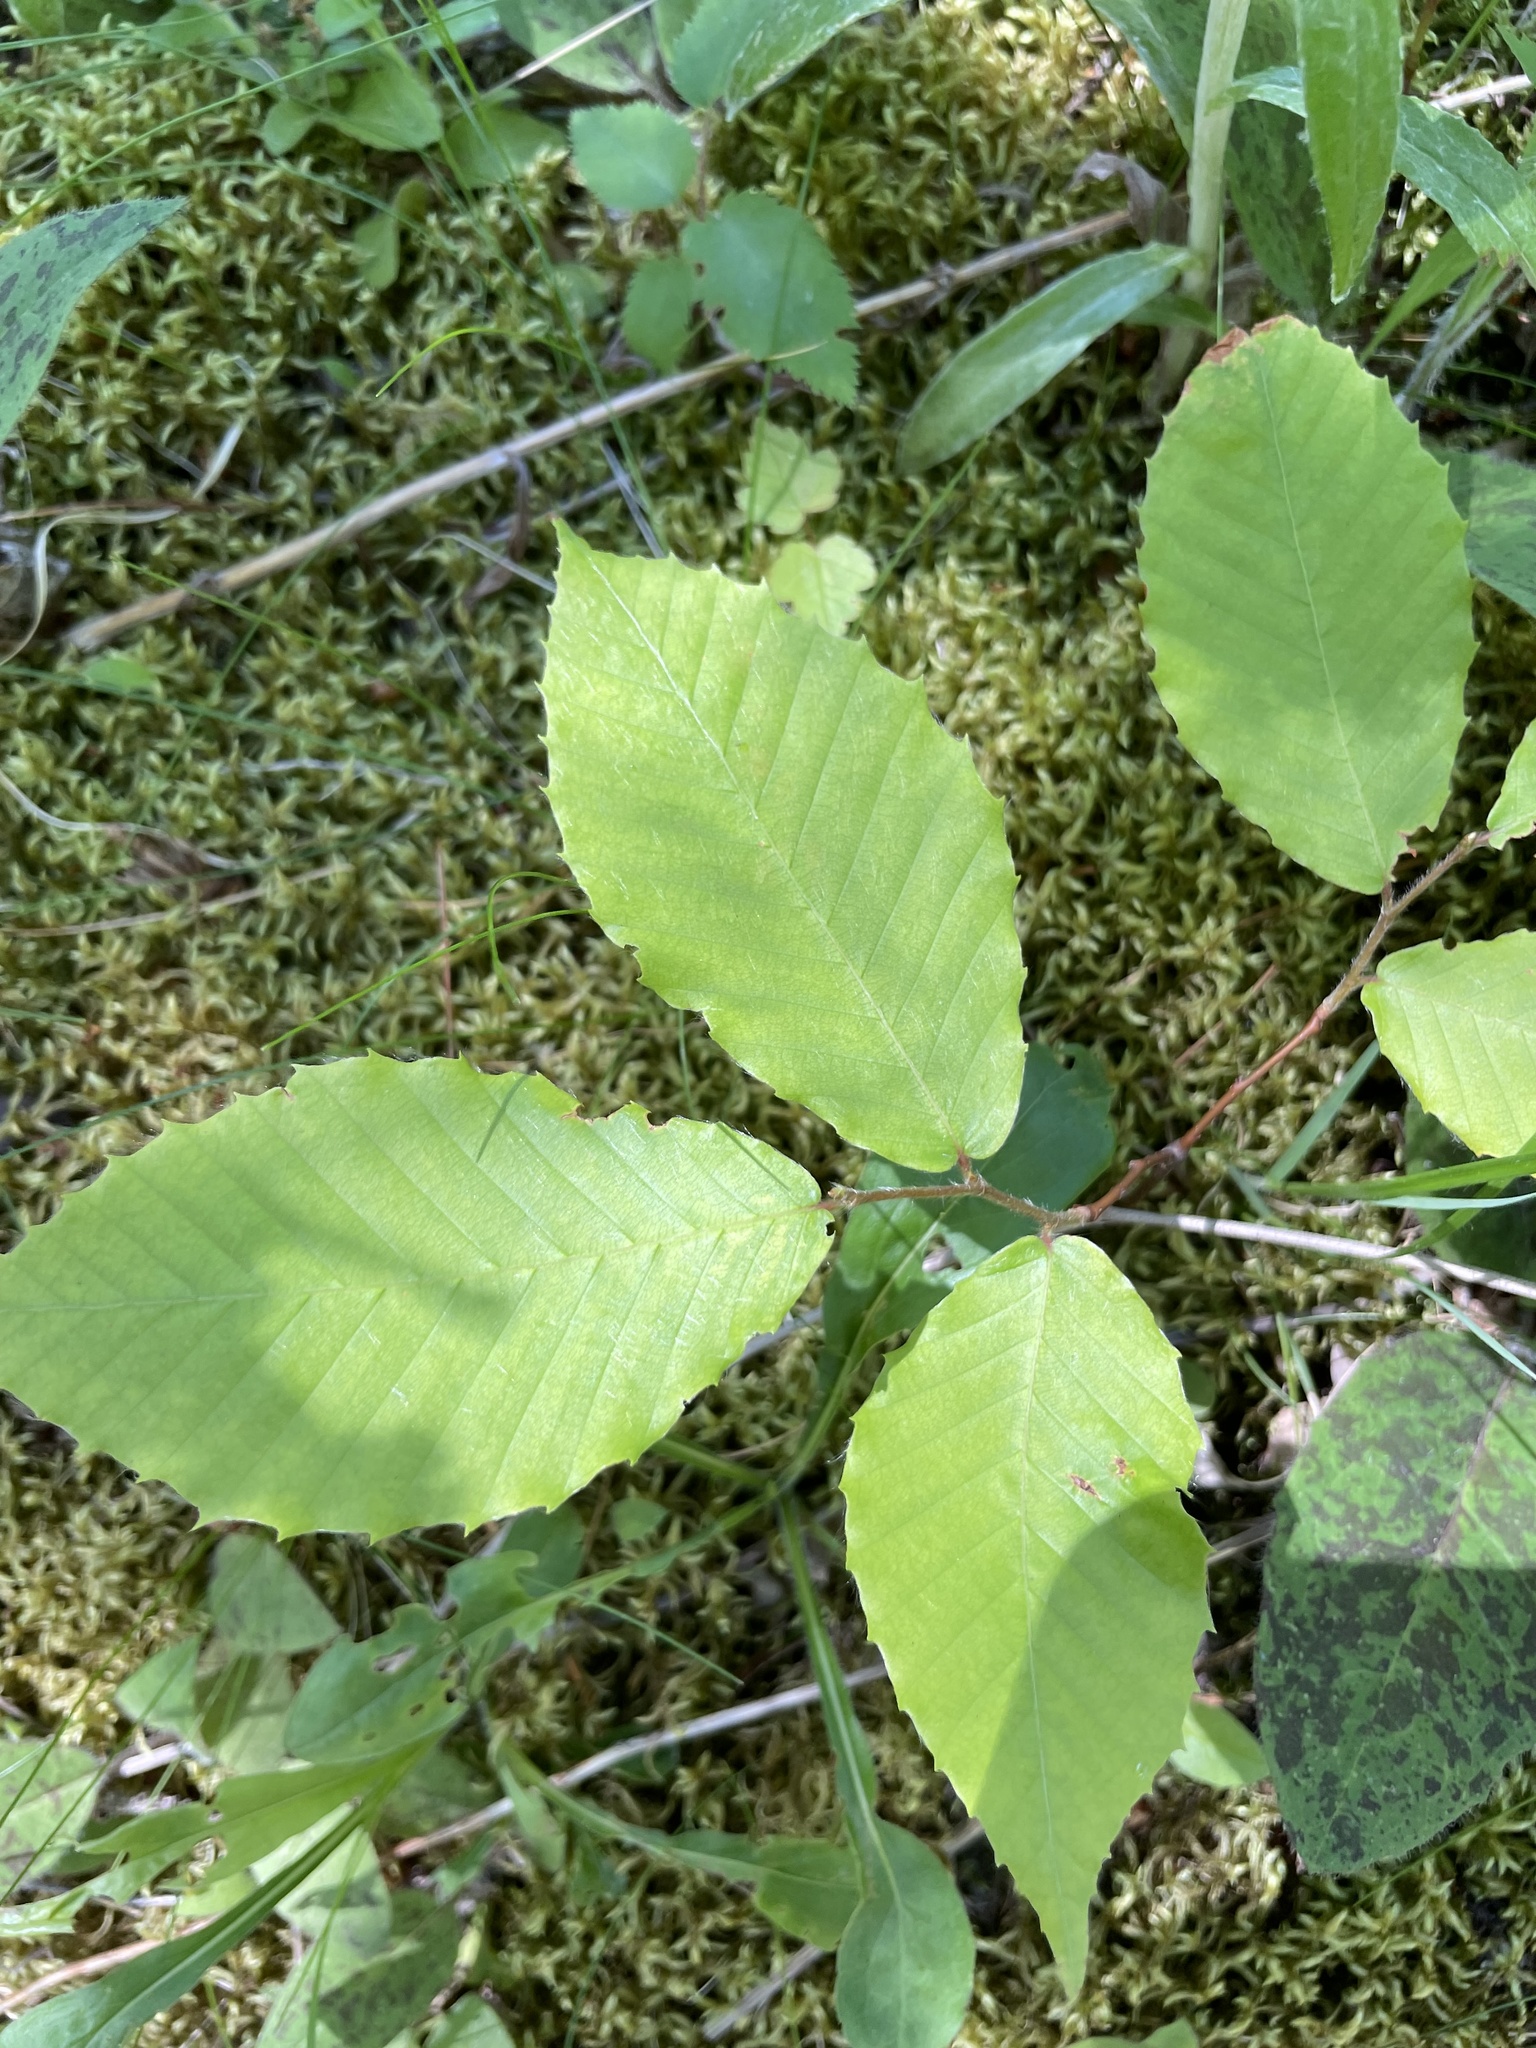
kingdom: Plantae
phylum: Tracheophyta
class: Magnoliopsida
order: Fagales
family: Fagaceae
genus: Fagus
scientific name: Fagus grandifolia
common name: American beech
